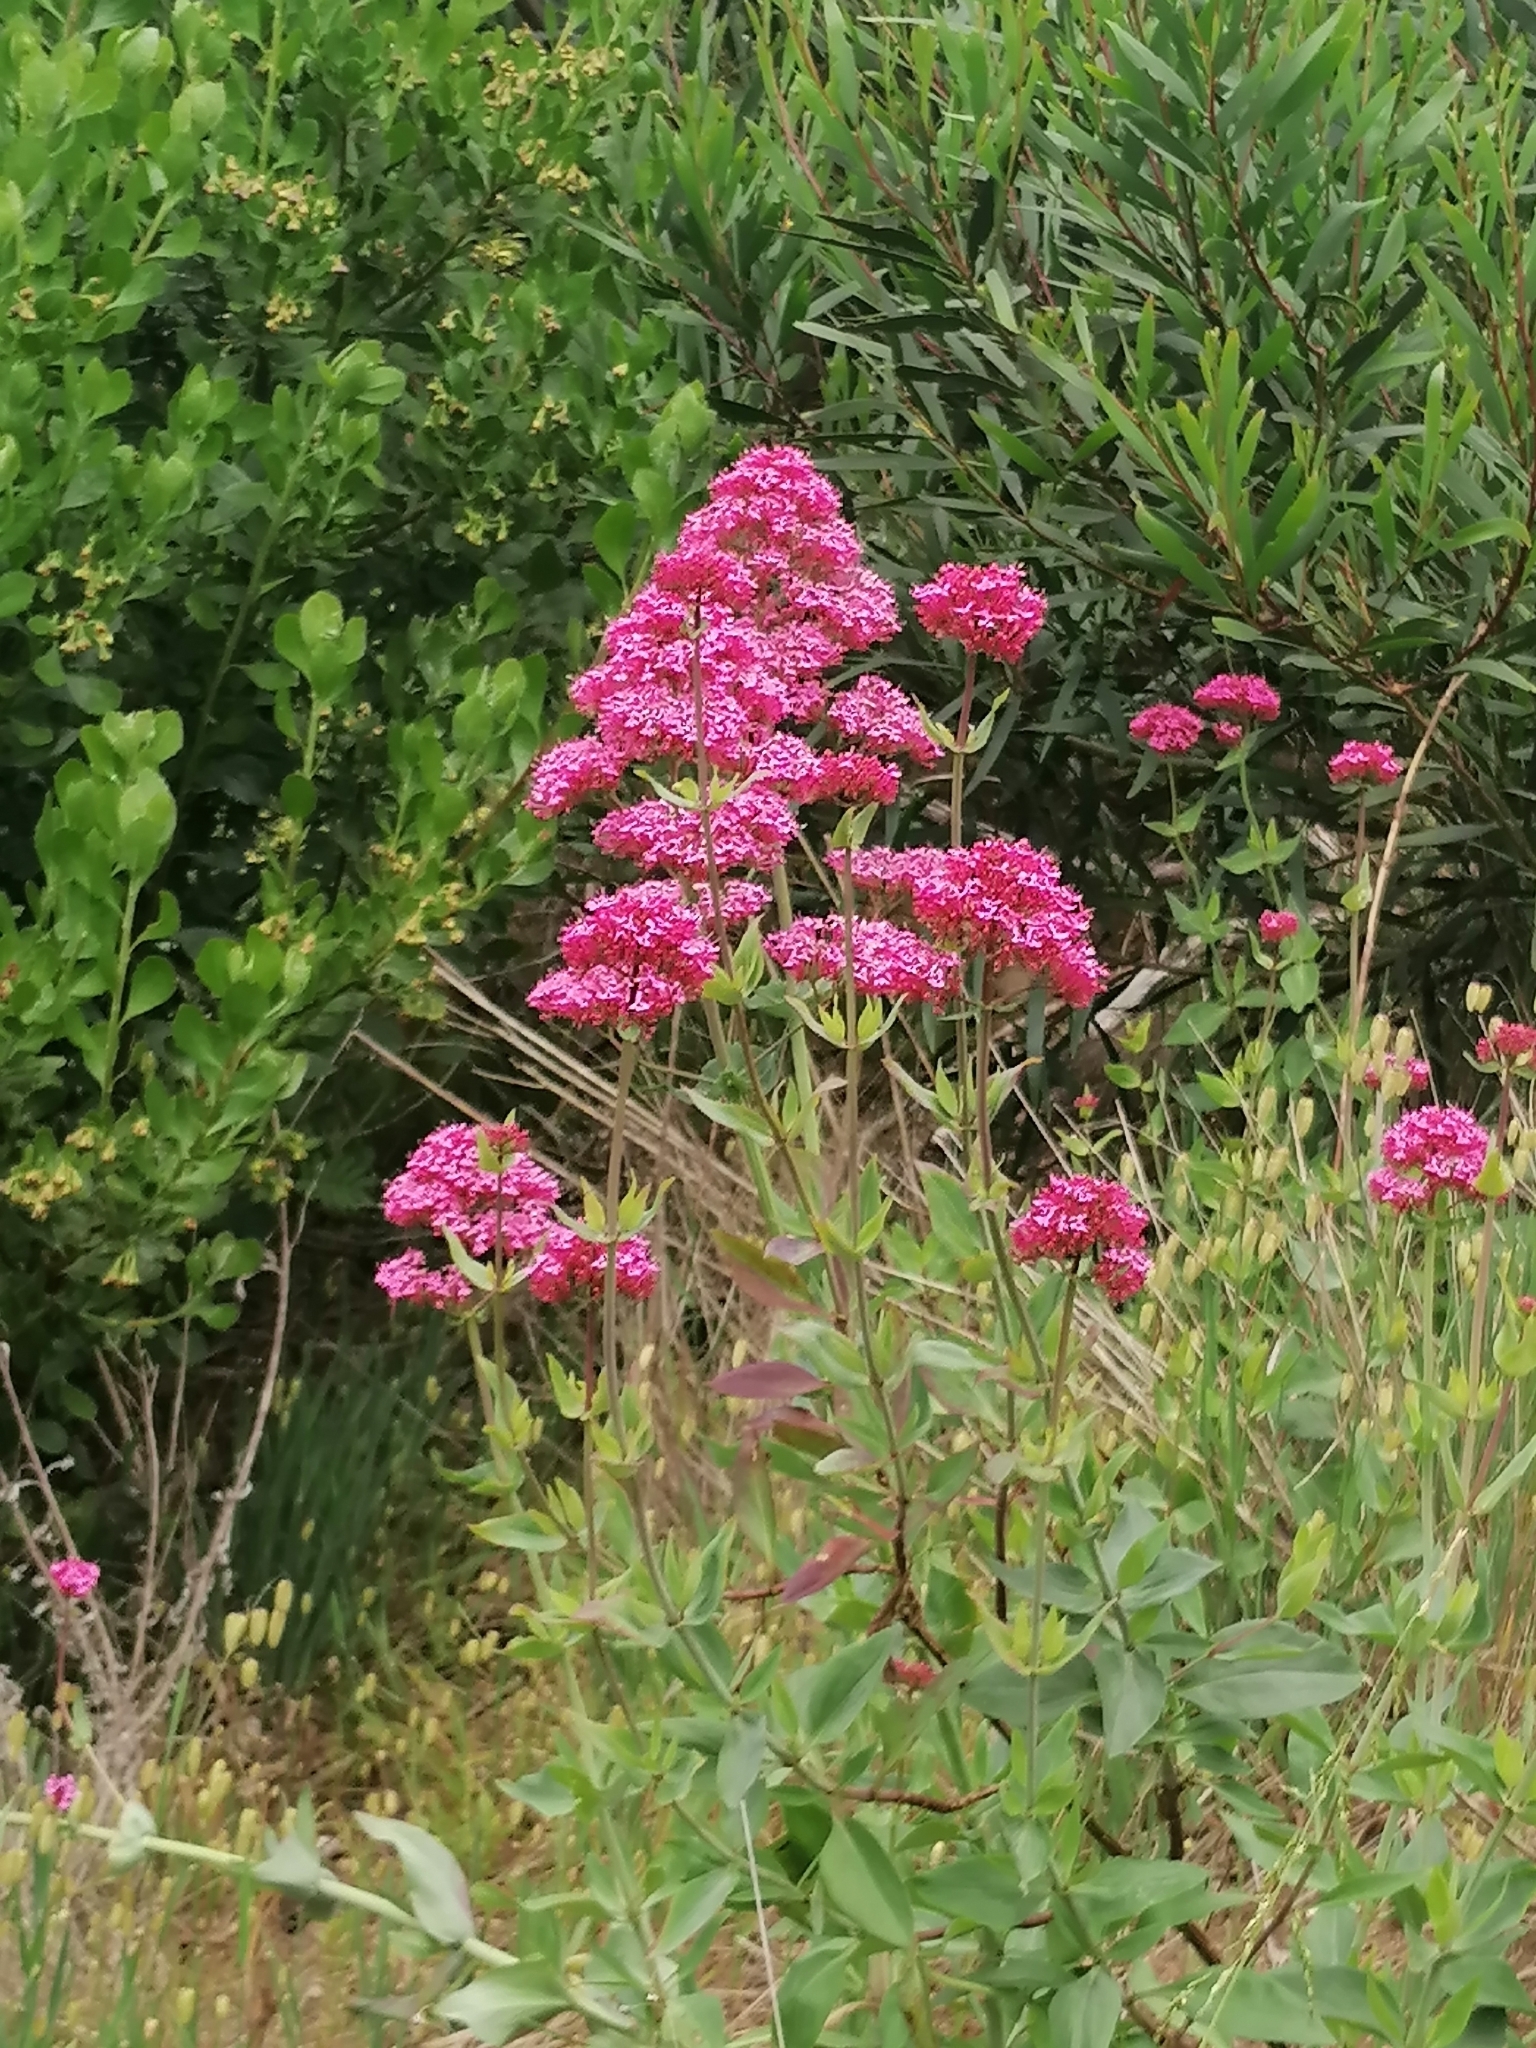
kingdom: Plantae
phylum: Tracheophyta
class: Magnoliopsida
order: Dipsacales
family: Caprifoliaceae
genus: Centranthus
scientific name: Centranthus ruber
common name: Red valerian
